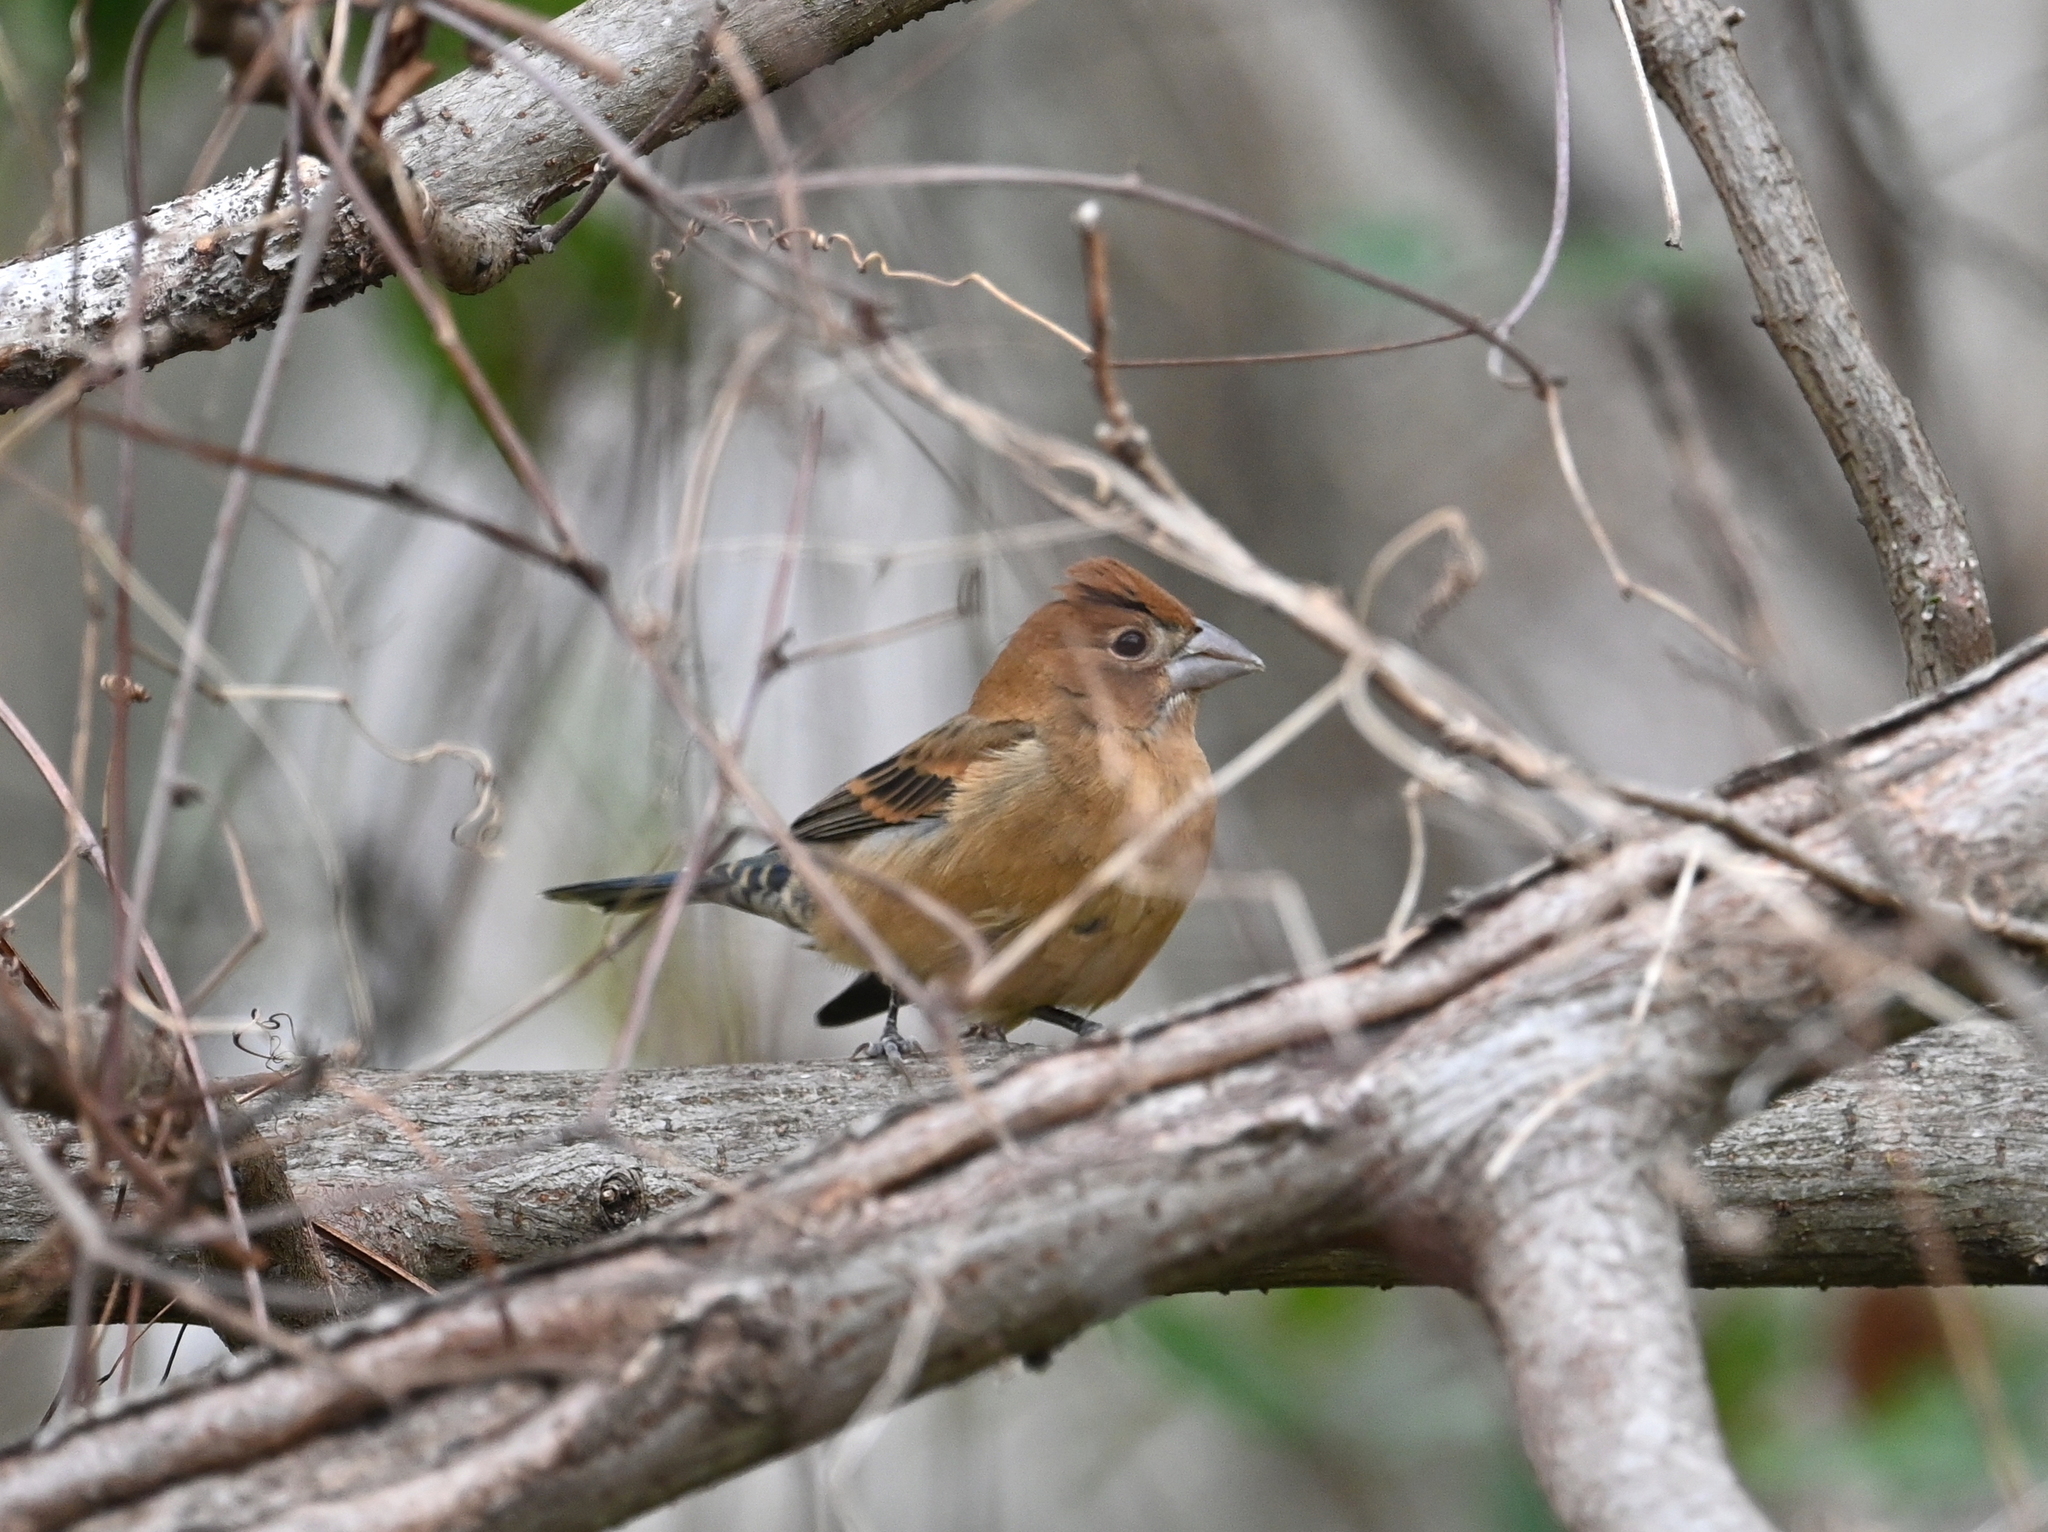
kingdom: Animalia
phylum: Chordata
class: Aves
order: Passeriformes
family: Cardinalidae
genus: Passerina
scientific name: Passerina caerulea
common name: Blue grosbeak
